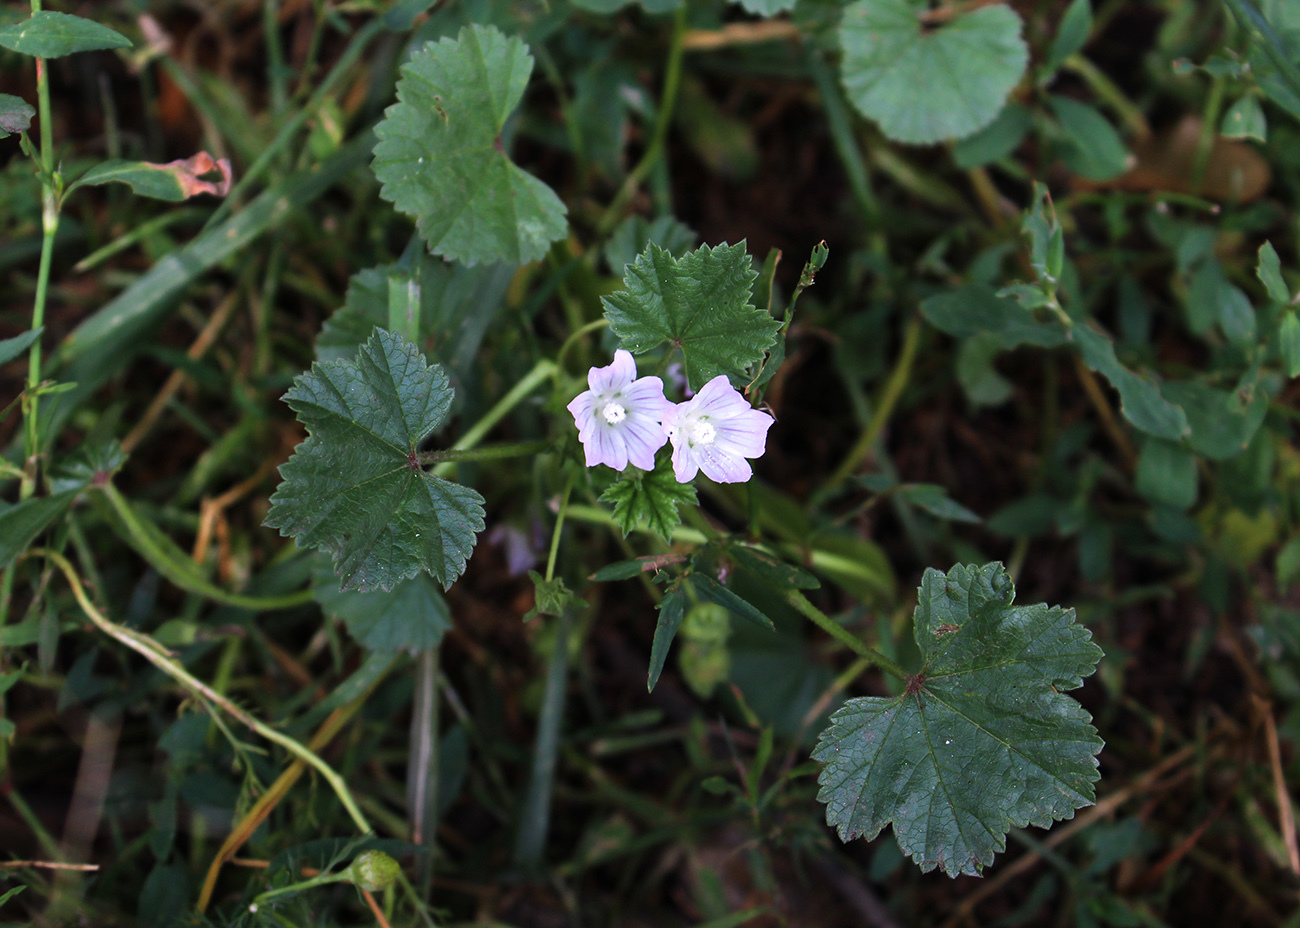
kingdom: Plantae
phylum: Tracheophyta
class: Magnoliopsida
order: Malvales
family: Malvaceae
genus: Malva
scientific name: Malva neglecta
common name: Common mallow
